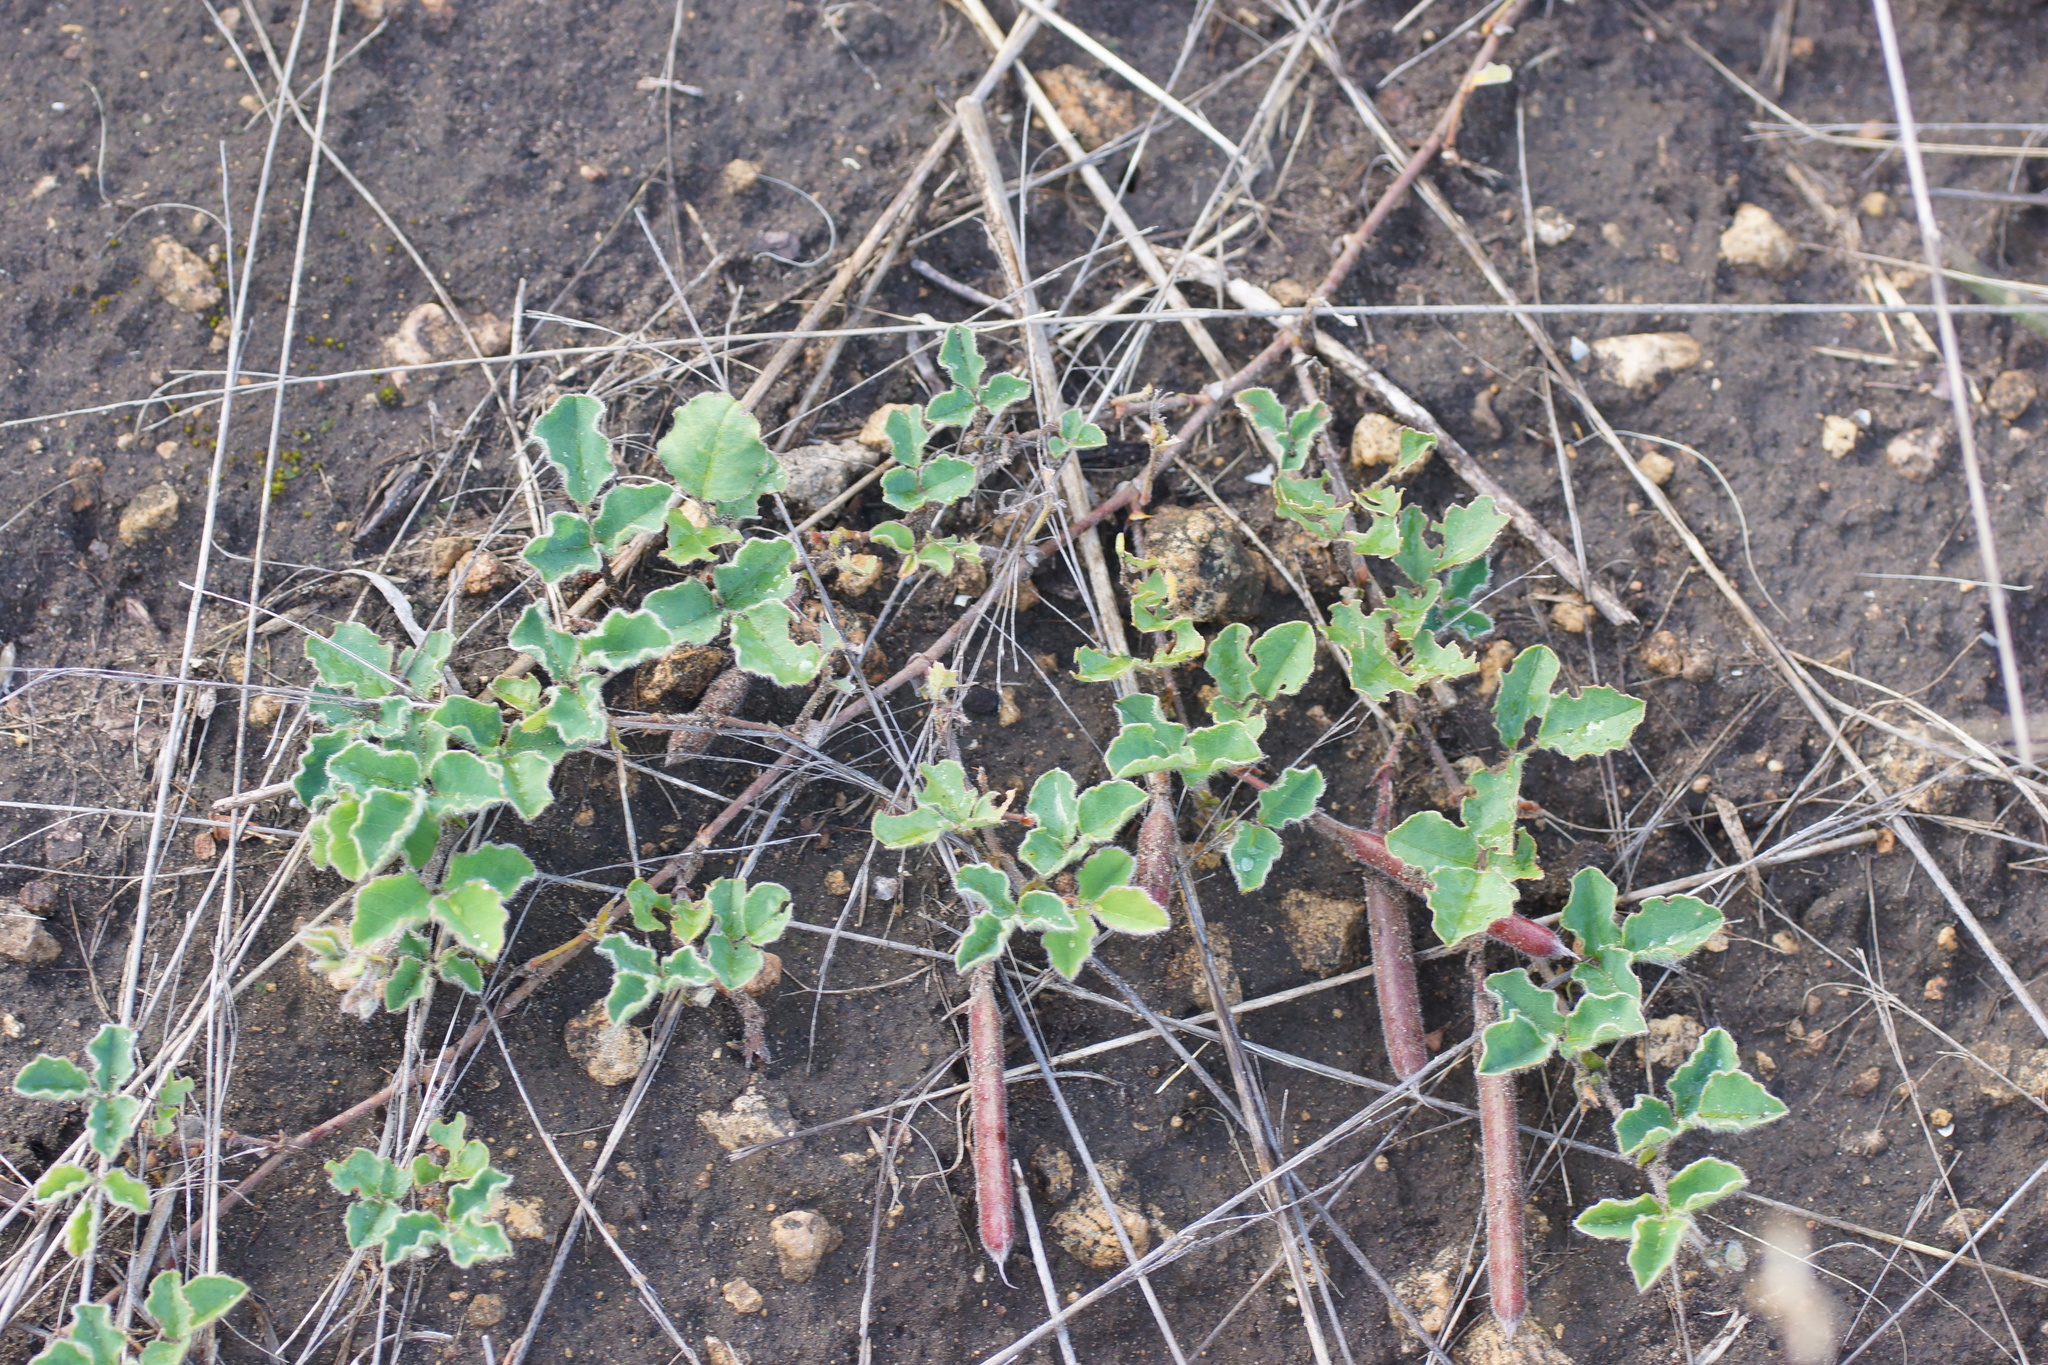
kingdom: Plantae
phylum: Tracheophyta
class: Magnoliopsida
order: Fabales
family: Fabaceae
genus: Kennedia
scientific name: Kennedia prostrata
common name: Running-postman
